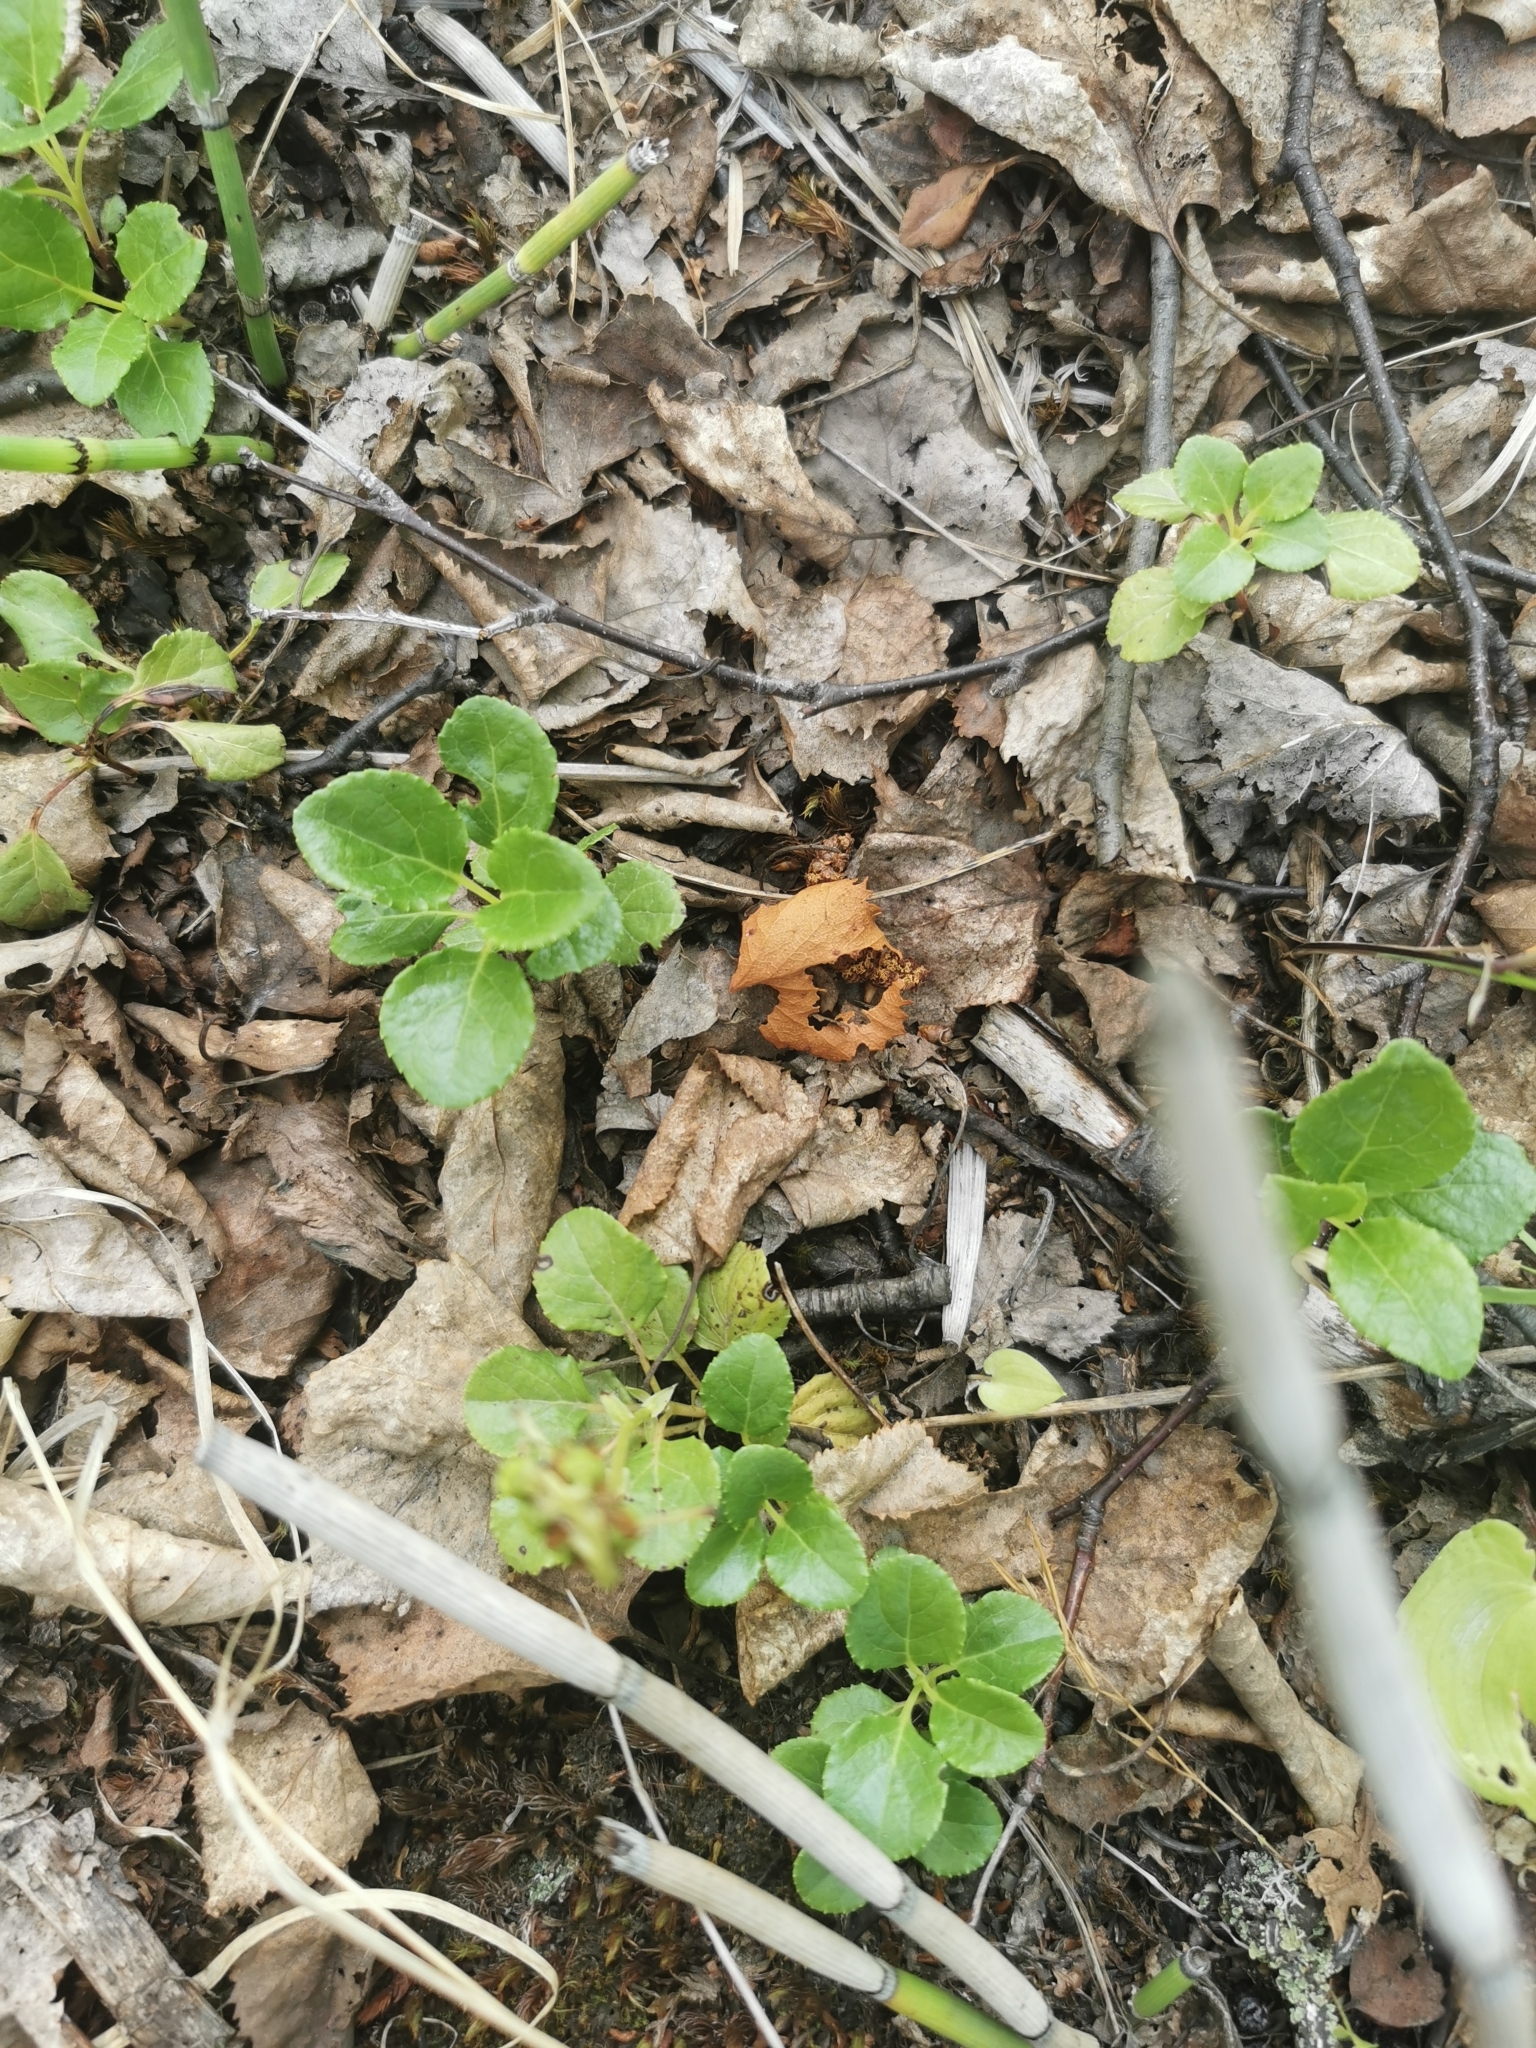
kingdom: Plantae
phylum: Tracheophyta
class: Magnoliopsida
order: Ericales
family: Ericaceae
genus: Orthilia
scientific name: Orthilia secunda
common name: One-sided orthilia
